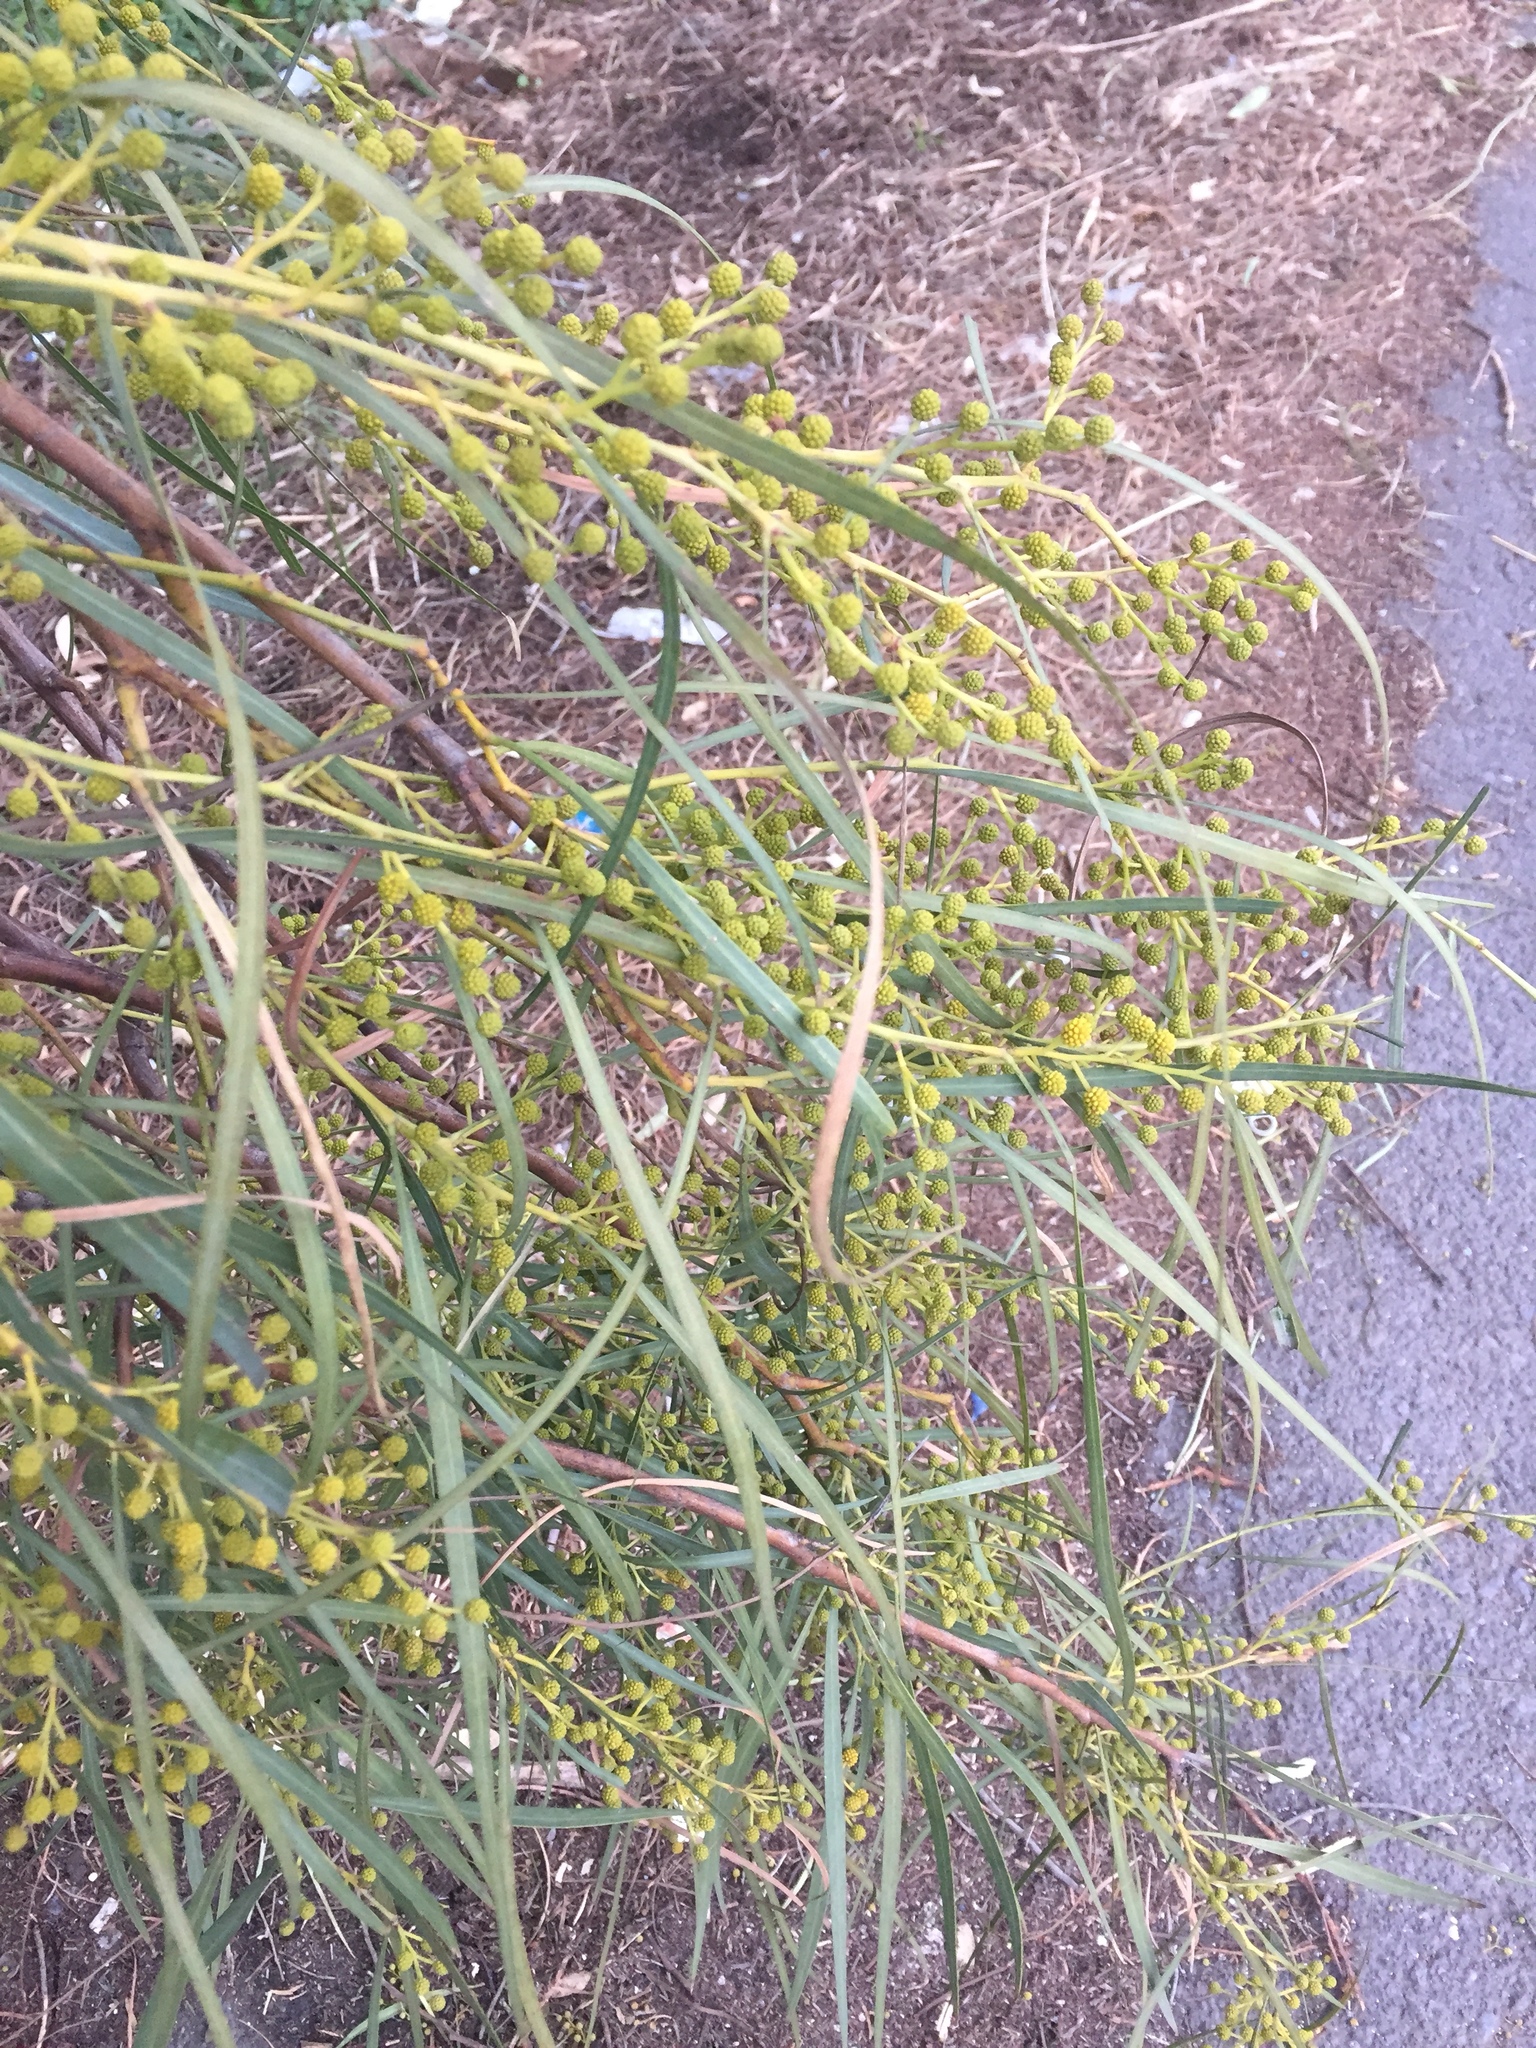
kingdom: Plantae
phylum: Tracheophyta
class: Magnoliopsida
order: Fabales
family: Fabaceae
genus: Acacia
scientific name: Acacia saligna
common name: Orange wattle
